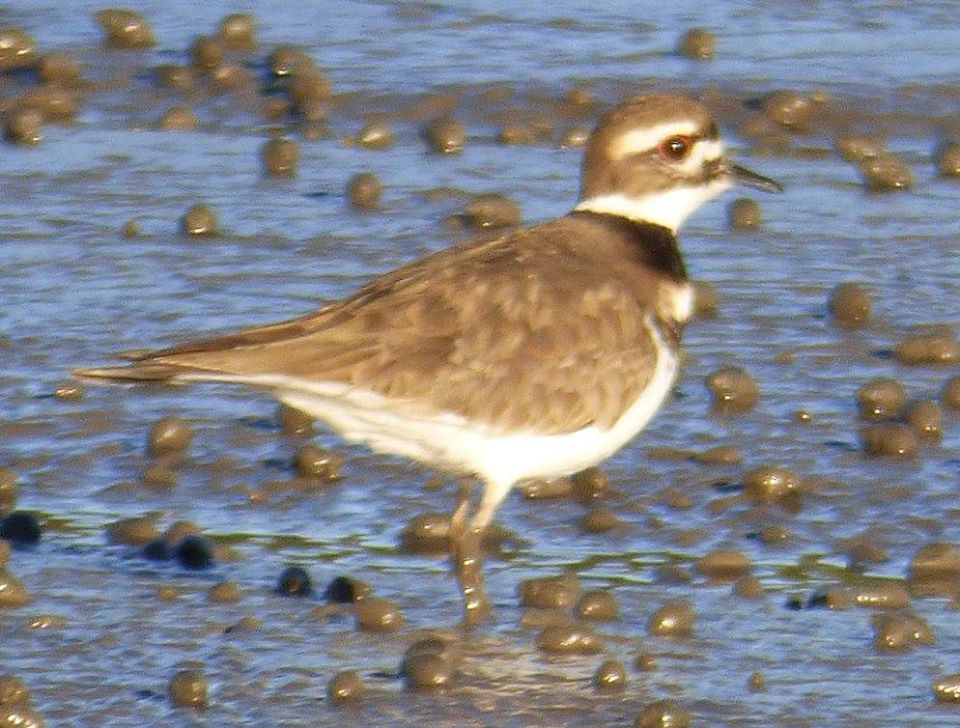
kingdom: Animalia
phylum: Chordata
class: Aves
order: Charadriiformes
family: Charadriidae
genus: Charadrius
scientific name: Charadrius vociferus
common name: Killdeer
